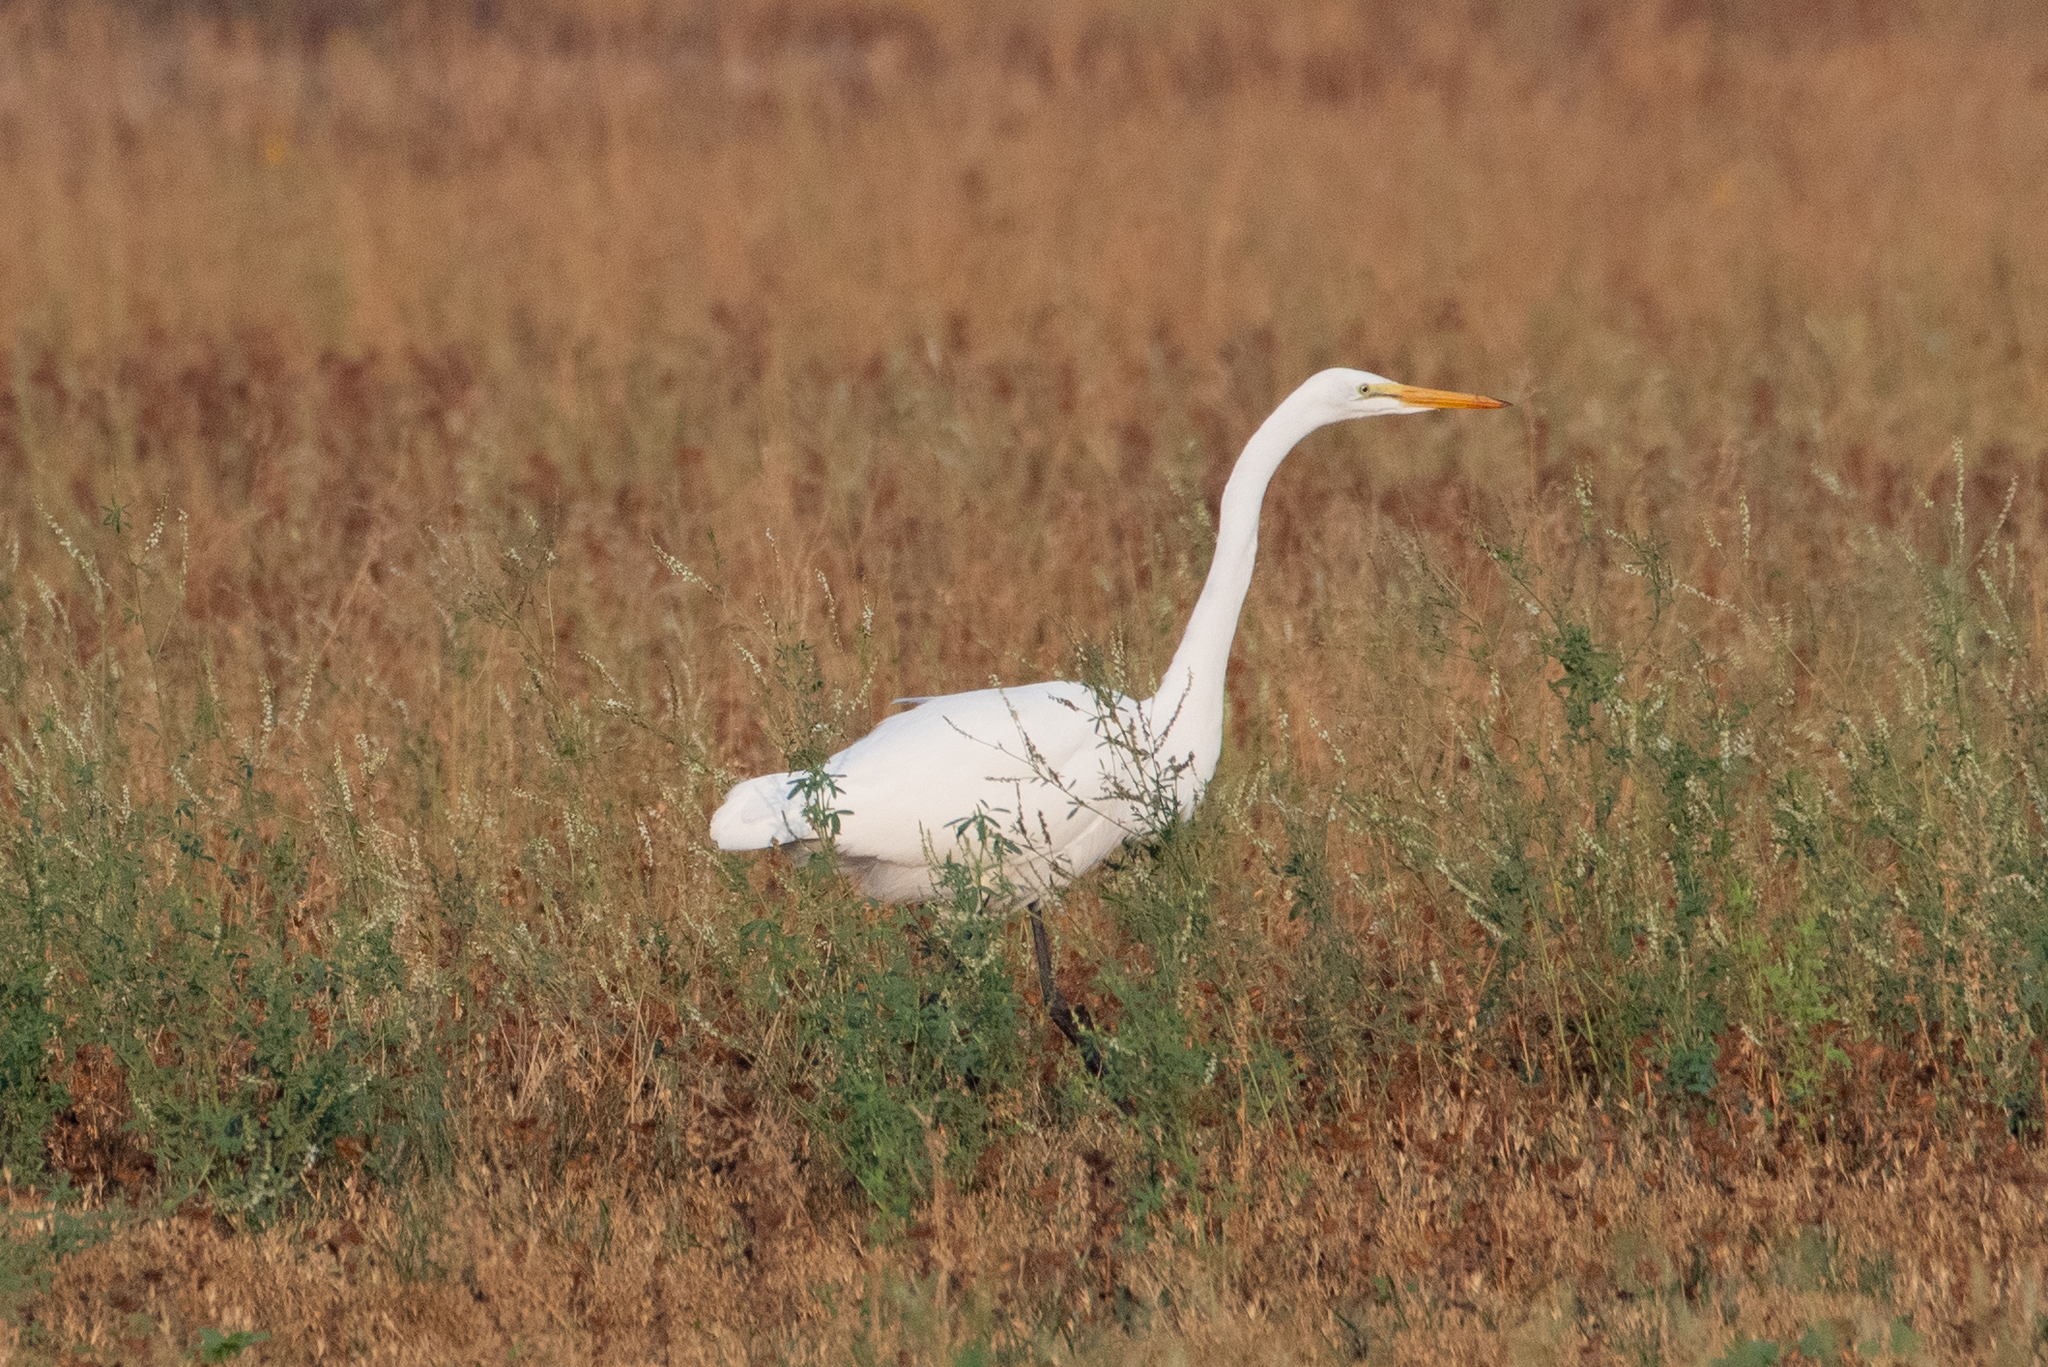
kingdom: Animalia
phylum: Chordata
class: Aves
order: Pelecaniformes
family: Ardeidae
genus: Ardea
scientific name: Ardea alba
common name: Great egret
